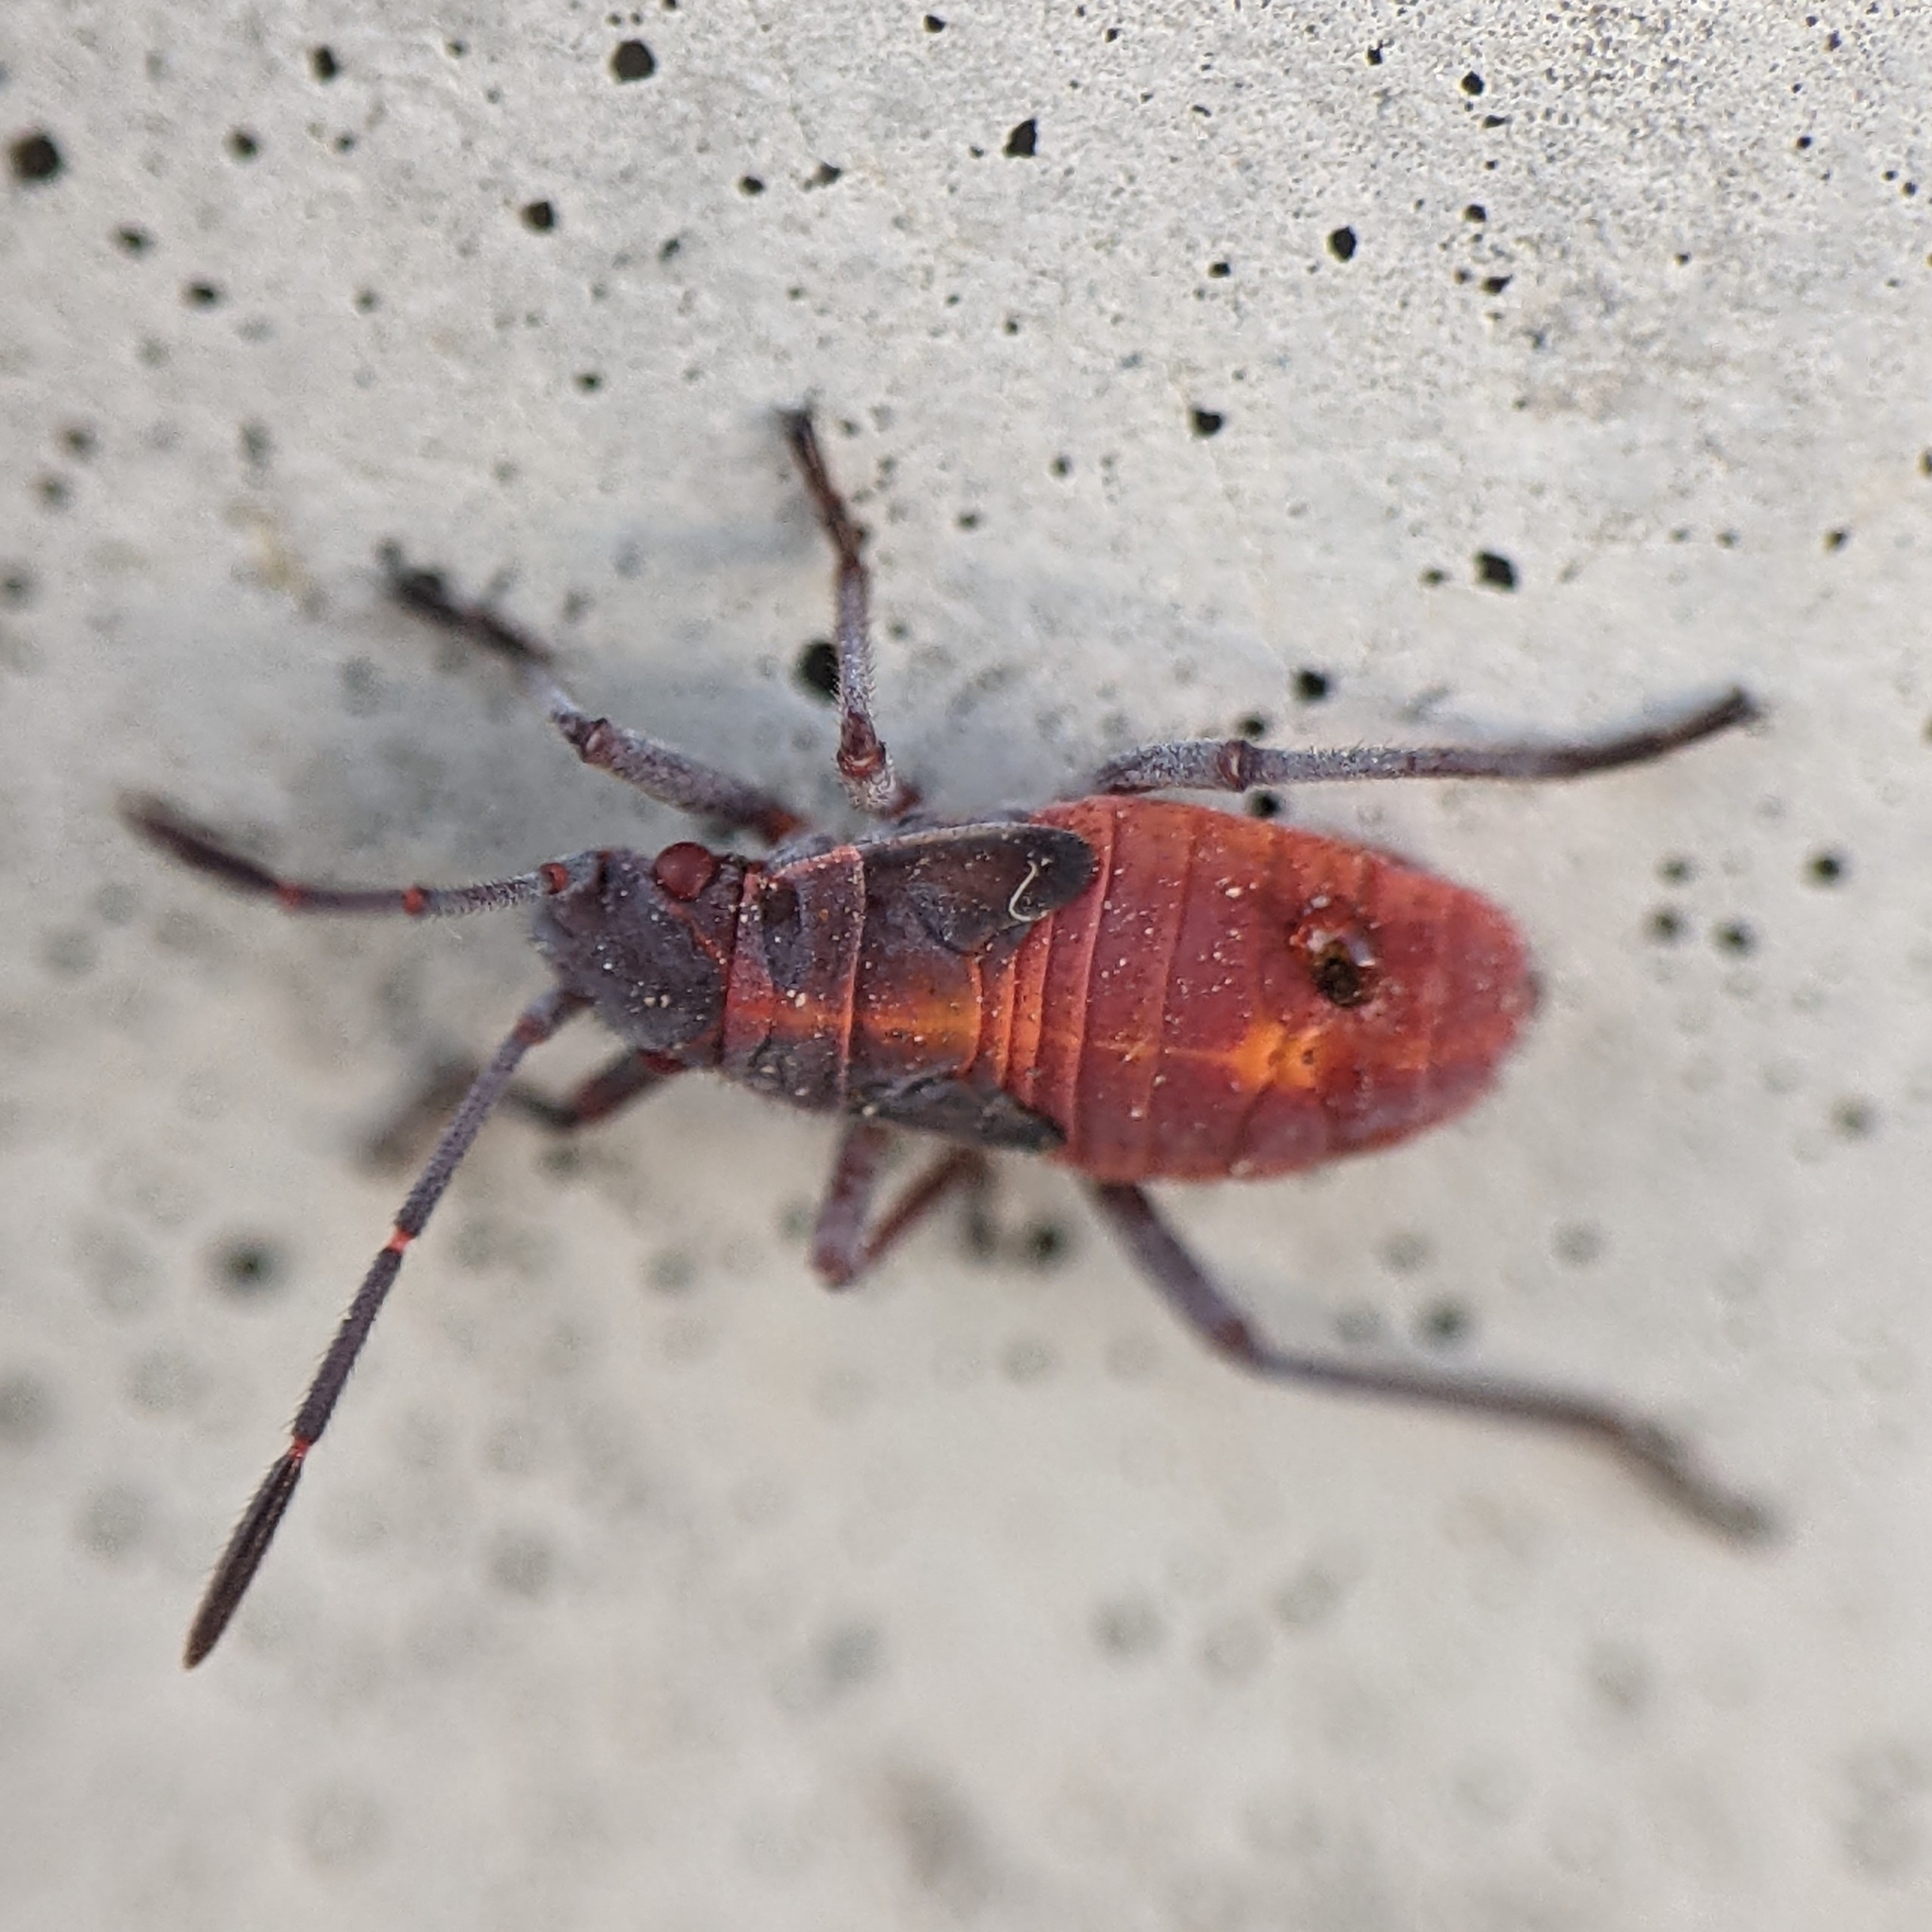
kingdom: Animalia
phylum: Arthropoda
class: Insecta
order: Hemiptera
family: Rhopalidae
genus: Boisea
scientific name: Boisea trivittata
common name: Boxelder bug
